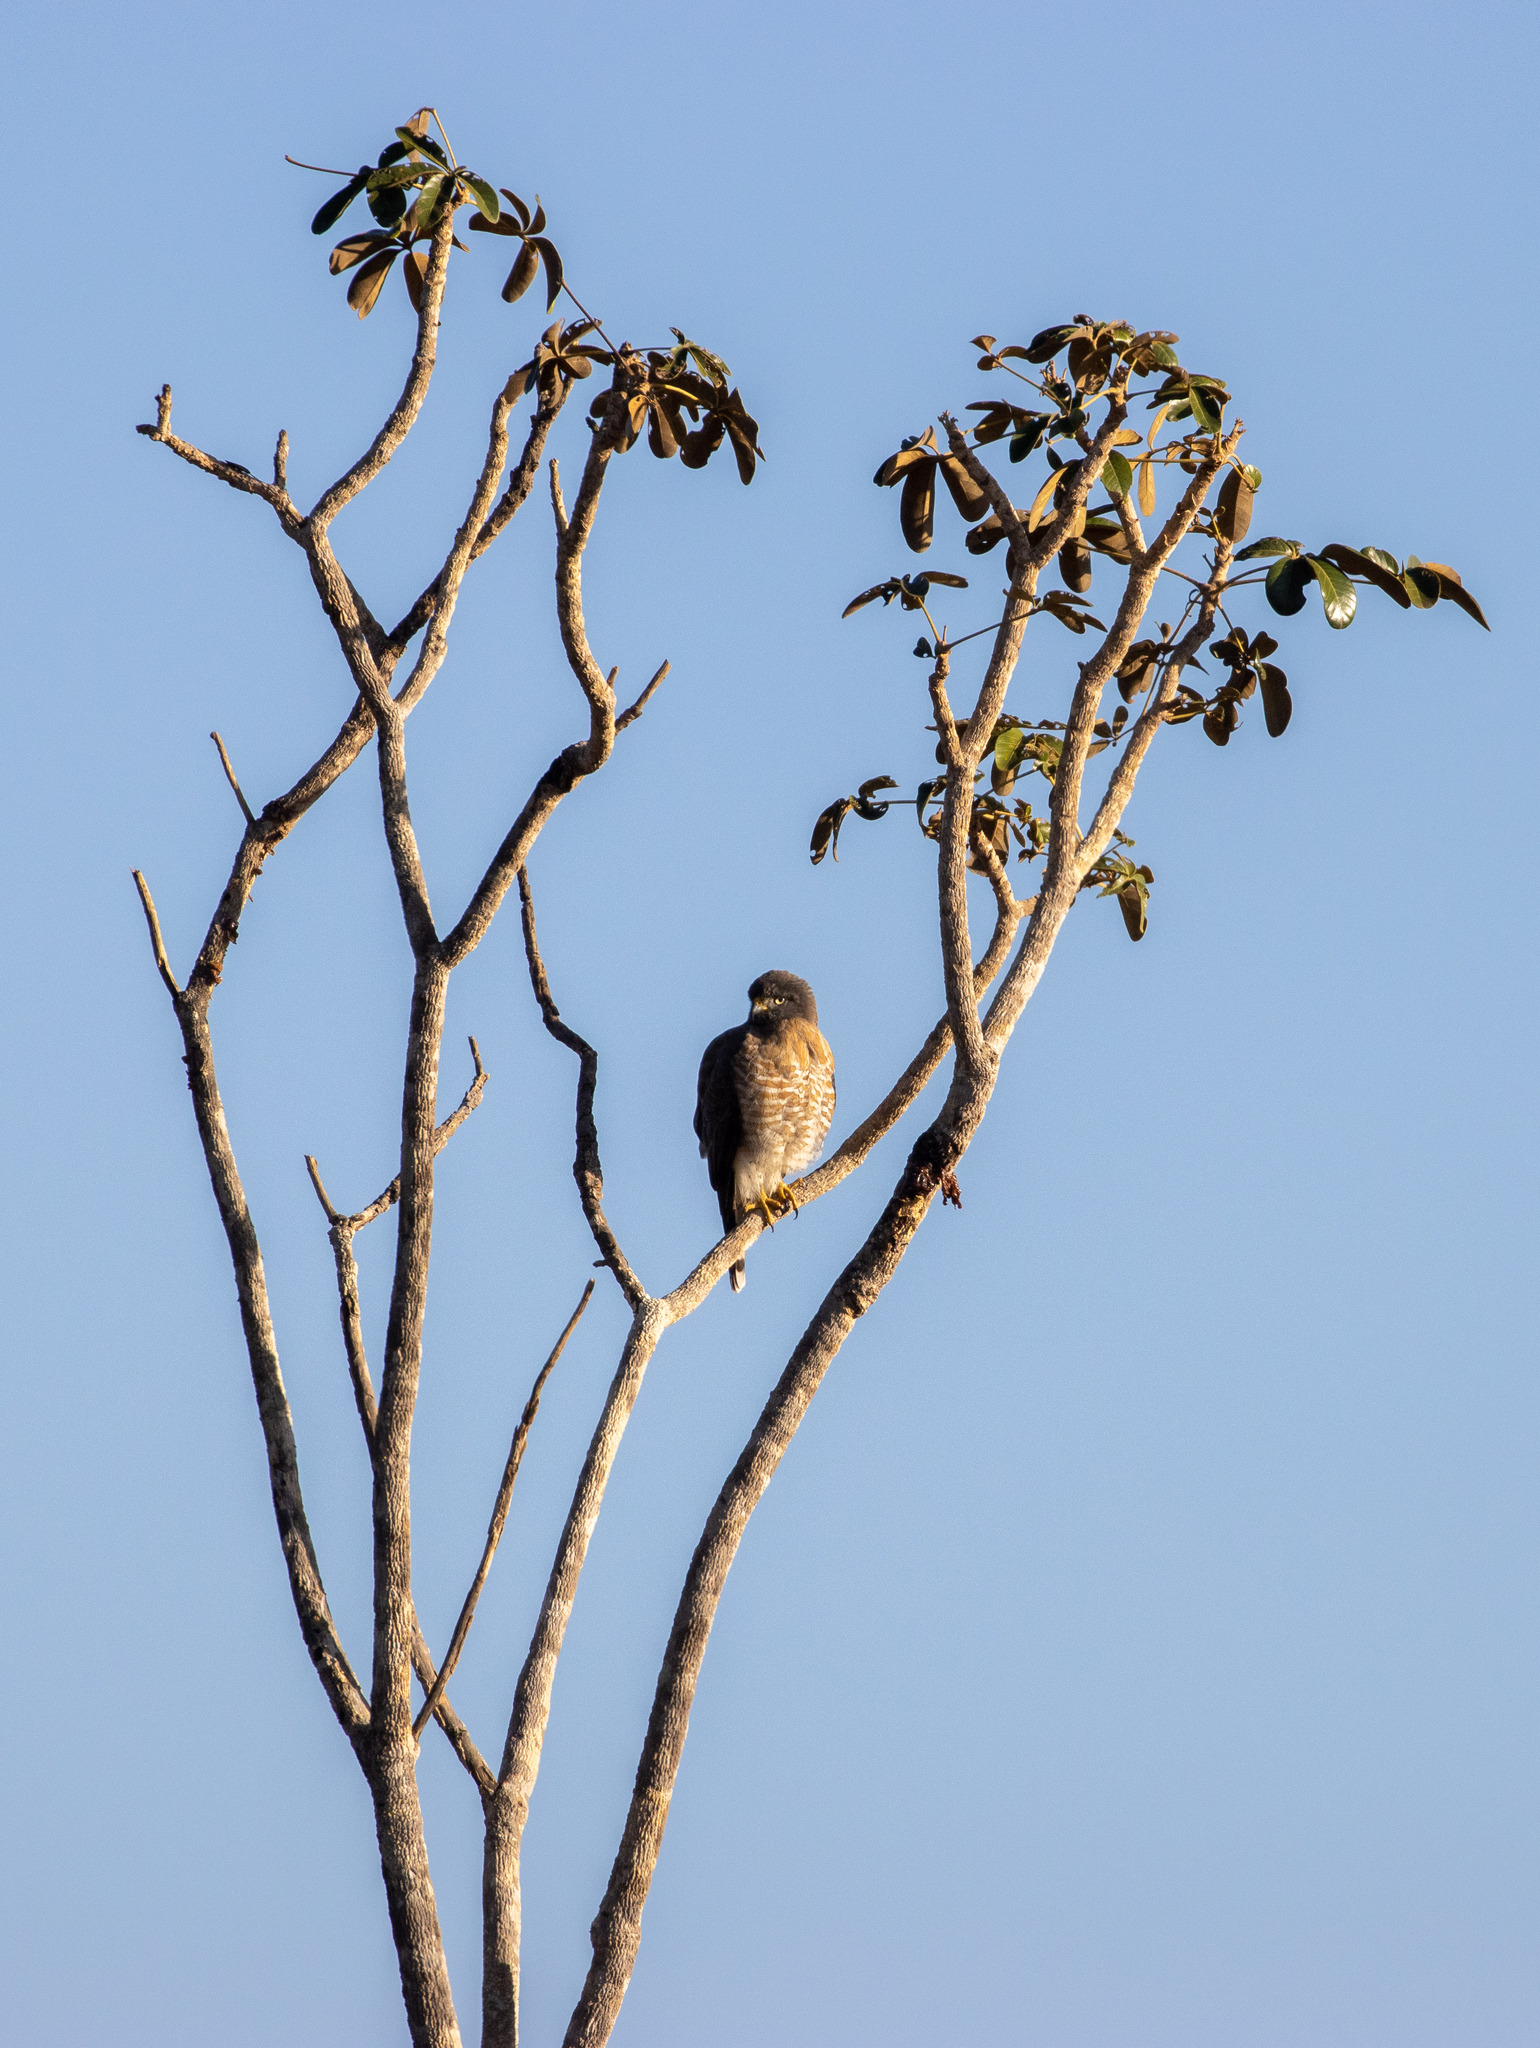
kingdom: Animalia
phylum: Chordata
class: Aves
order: Accipitriformes
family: Accipitridae
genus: Rupornis
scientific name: Rupornis magnirostris
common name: Roadside hawk
